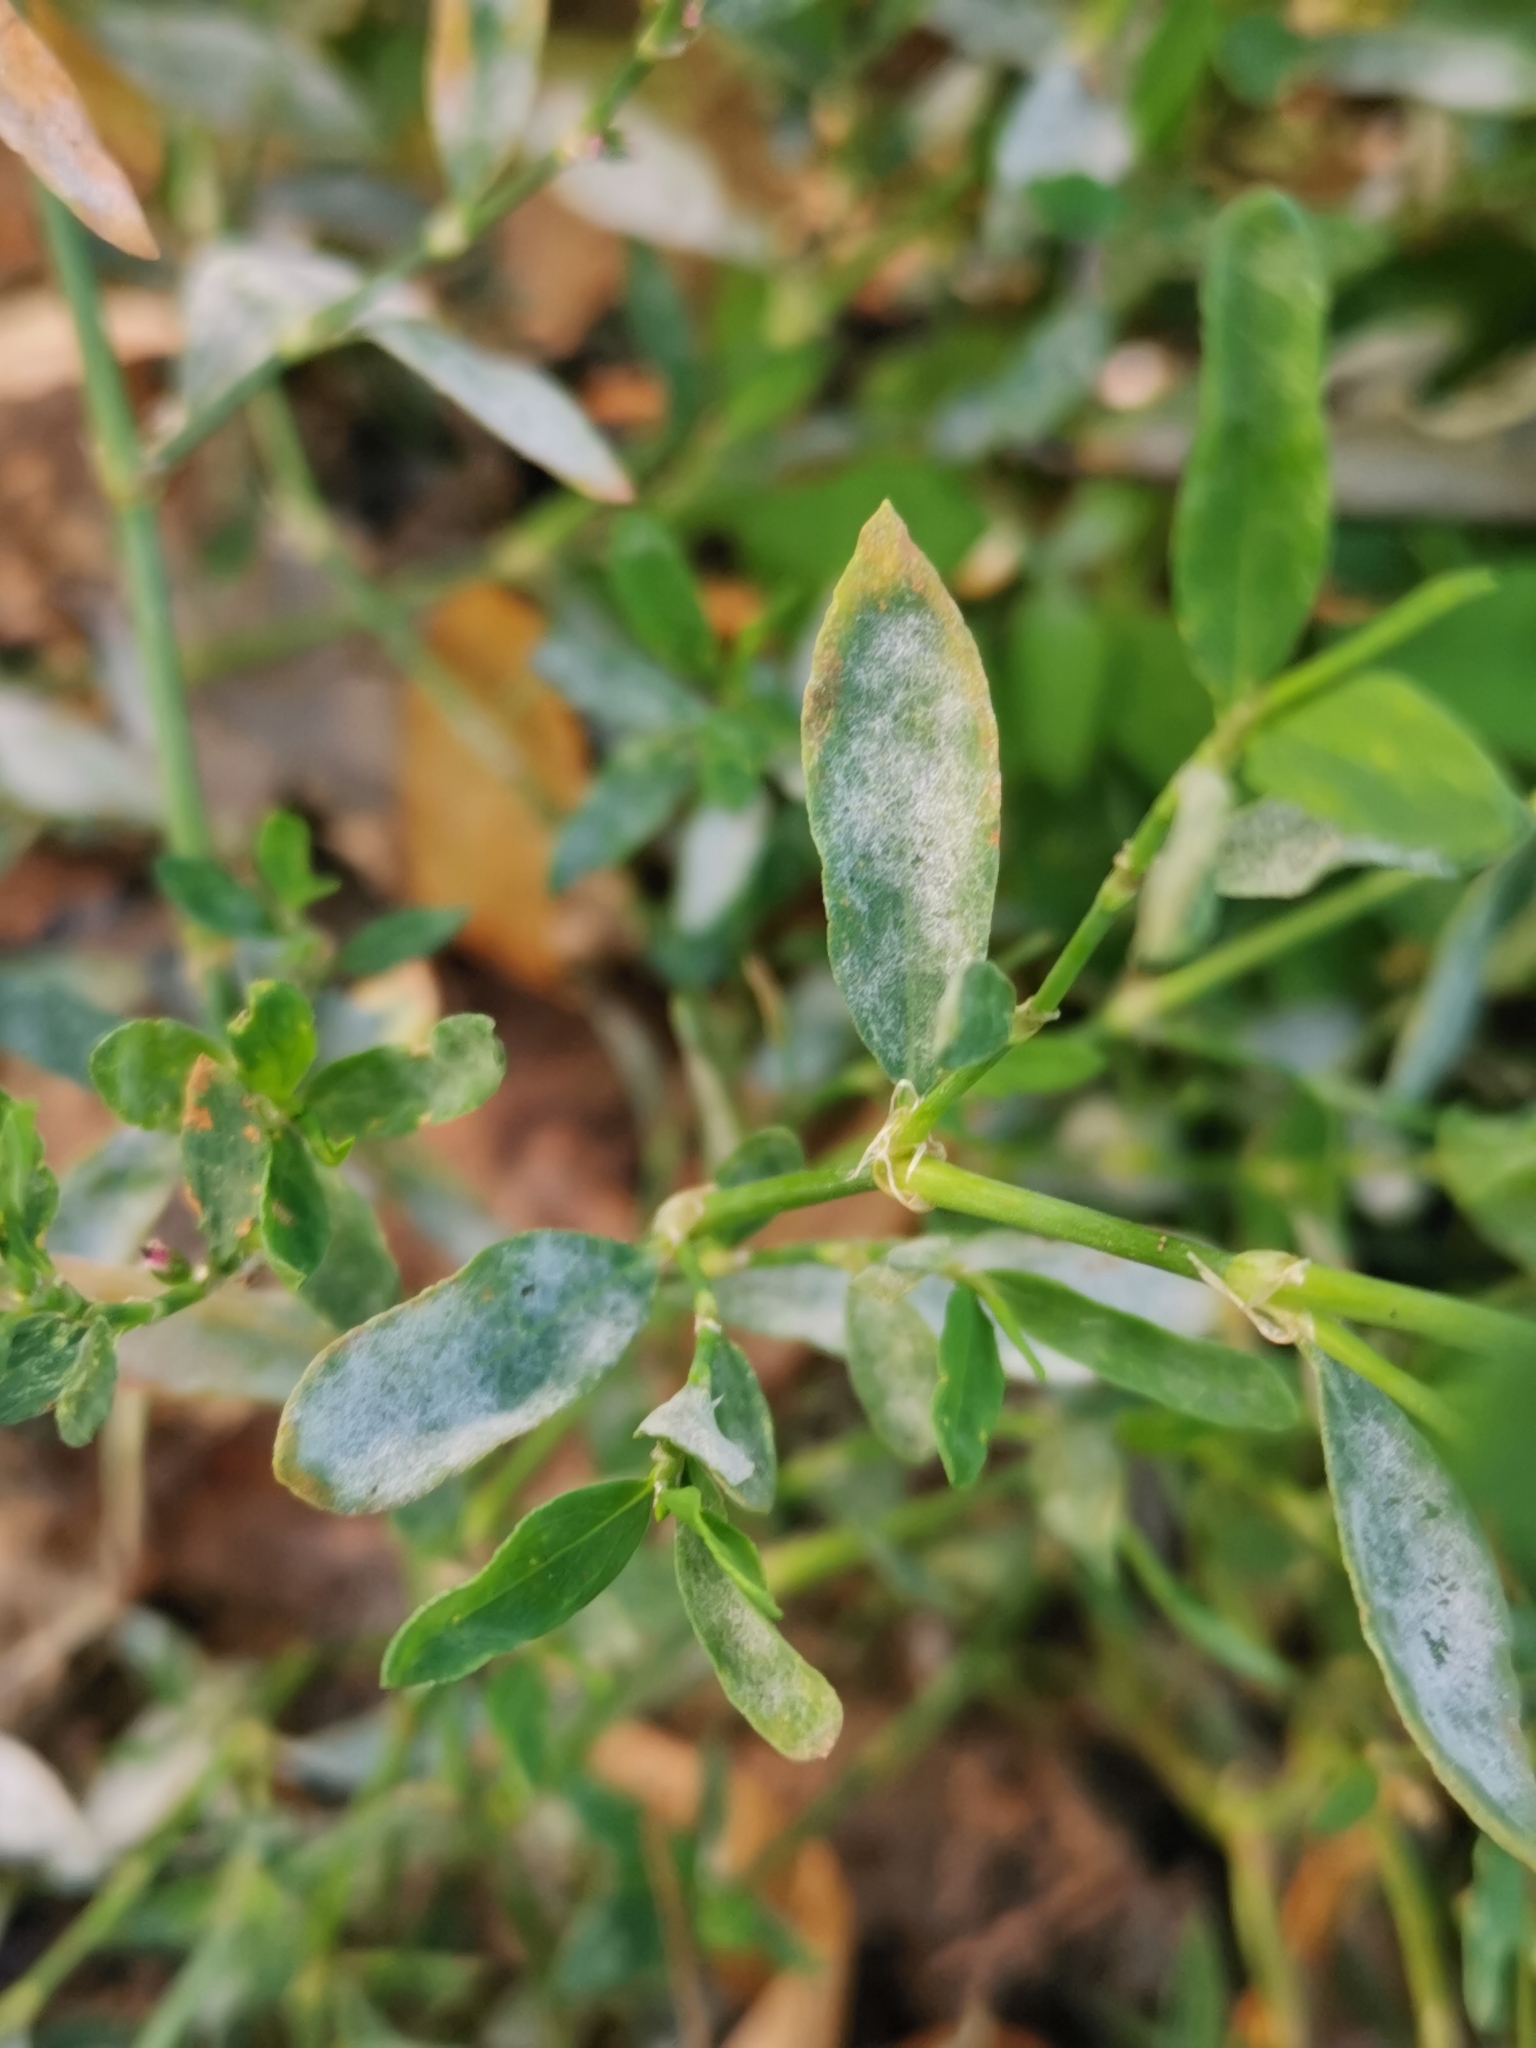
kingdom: Fungi
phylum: Ascomycota
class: Leotiomycetes
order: Helotiales
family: Erysiphaceae
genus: Erysiphe
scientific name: Erysiphe polygoni
